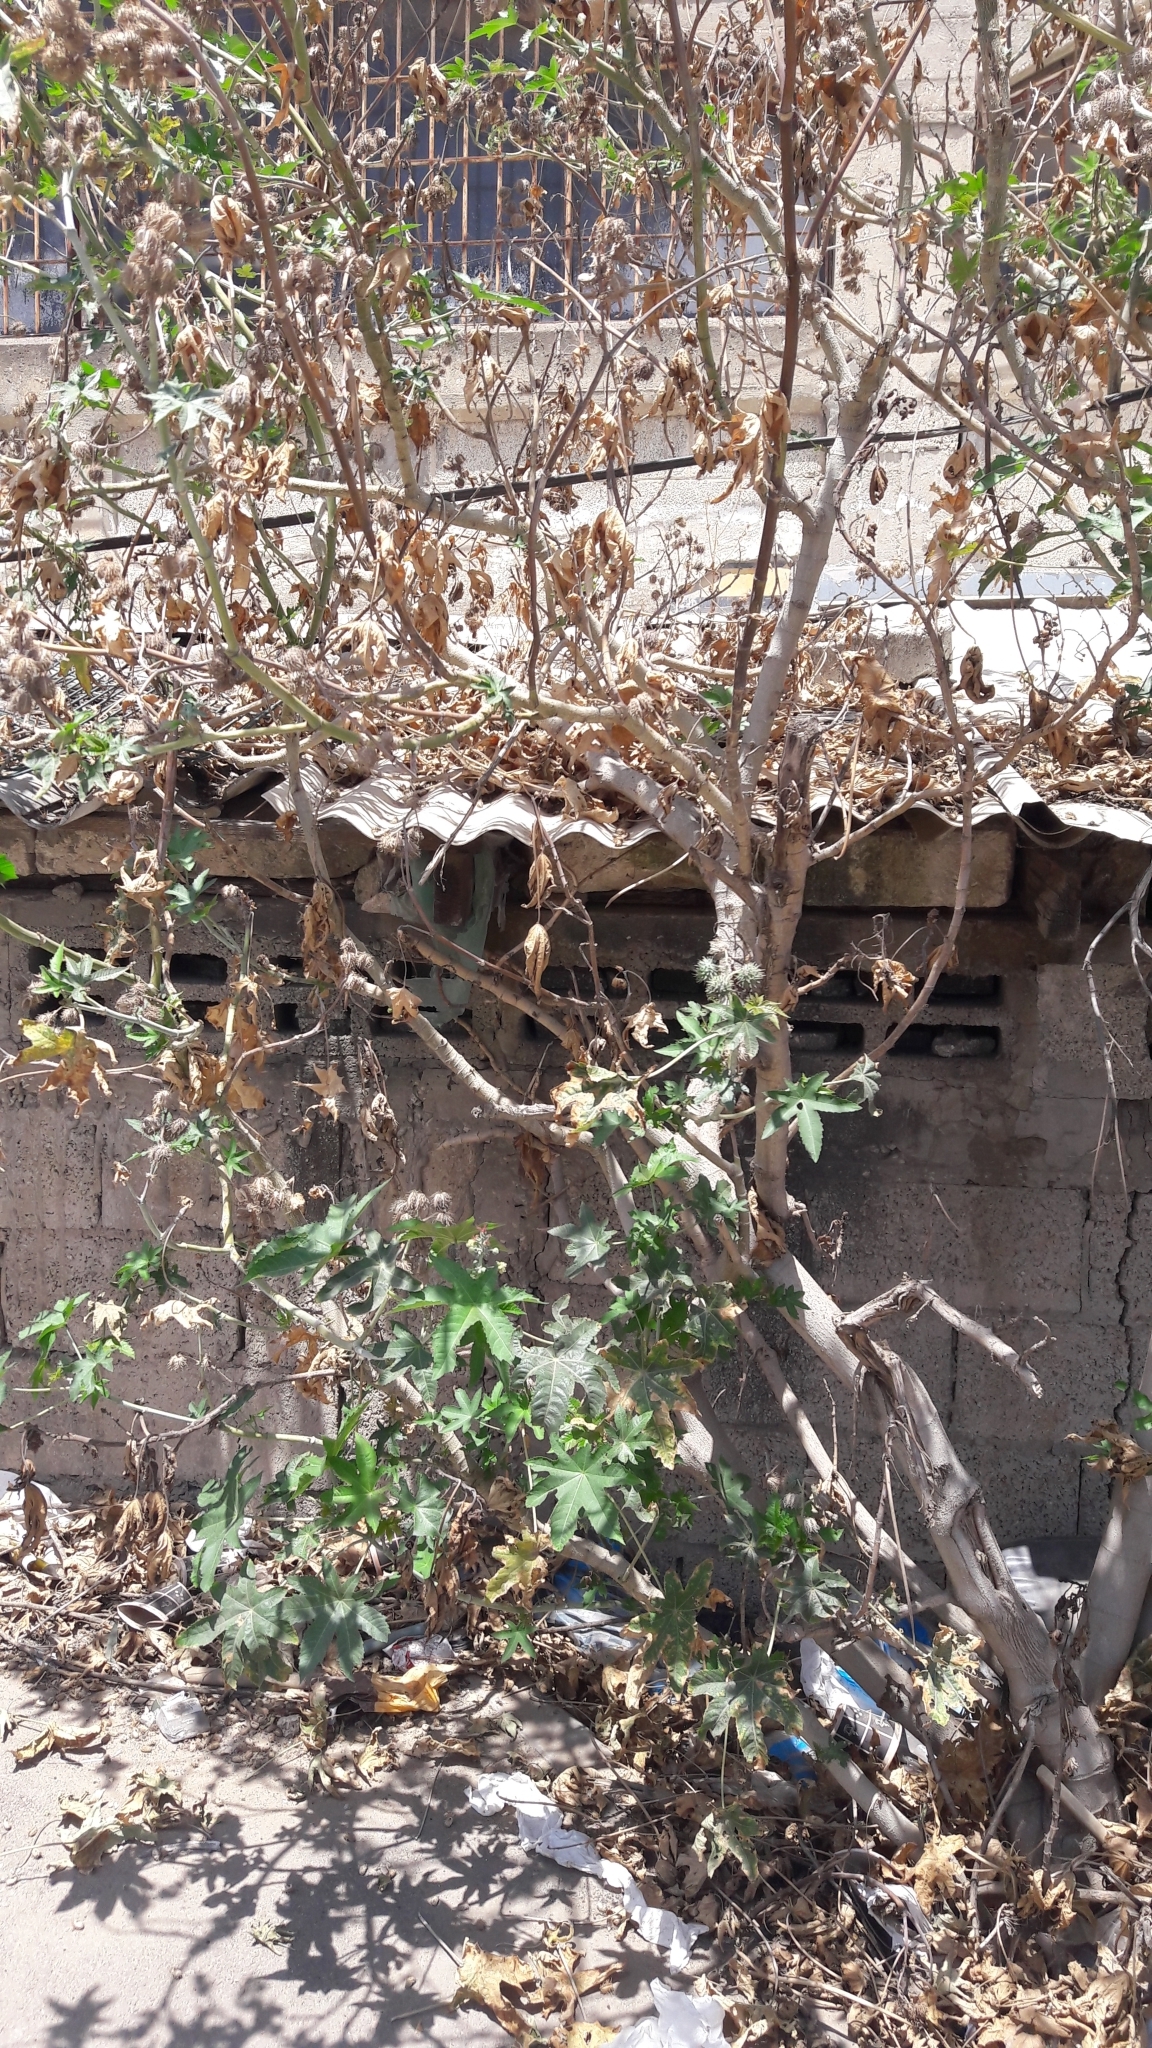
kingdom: Plantae
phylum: Tracheophyta
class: Magnoliopsida
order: Malpighiales
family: Euphorbiaceae
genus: Ricinus
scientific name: Ricinus communis
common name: Castor-oil-plant
